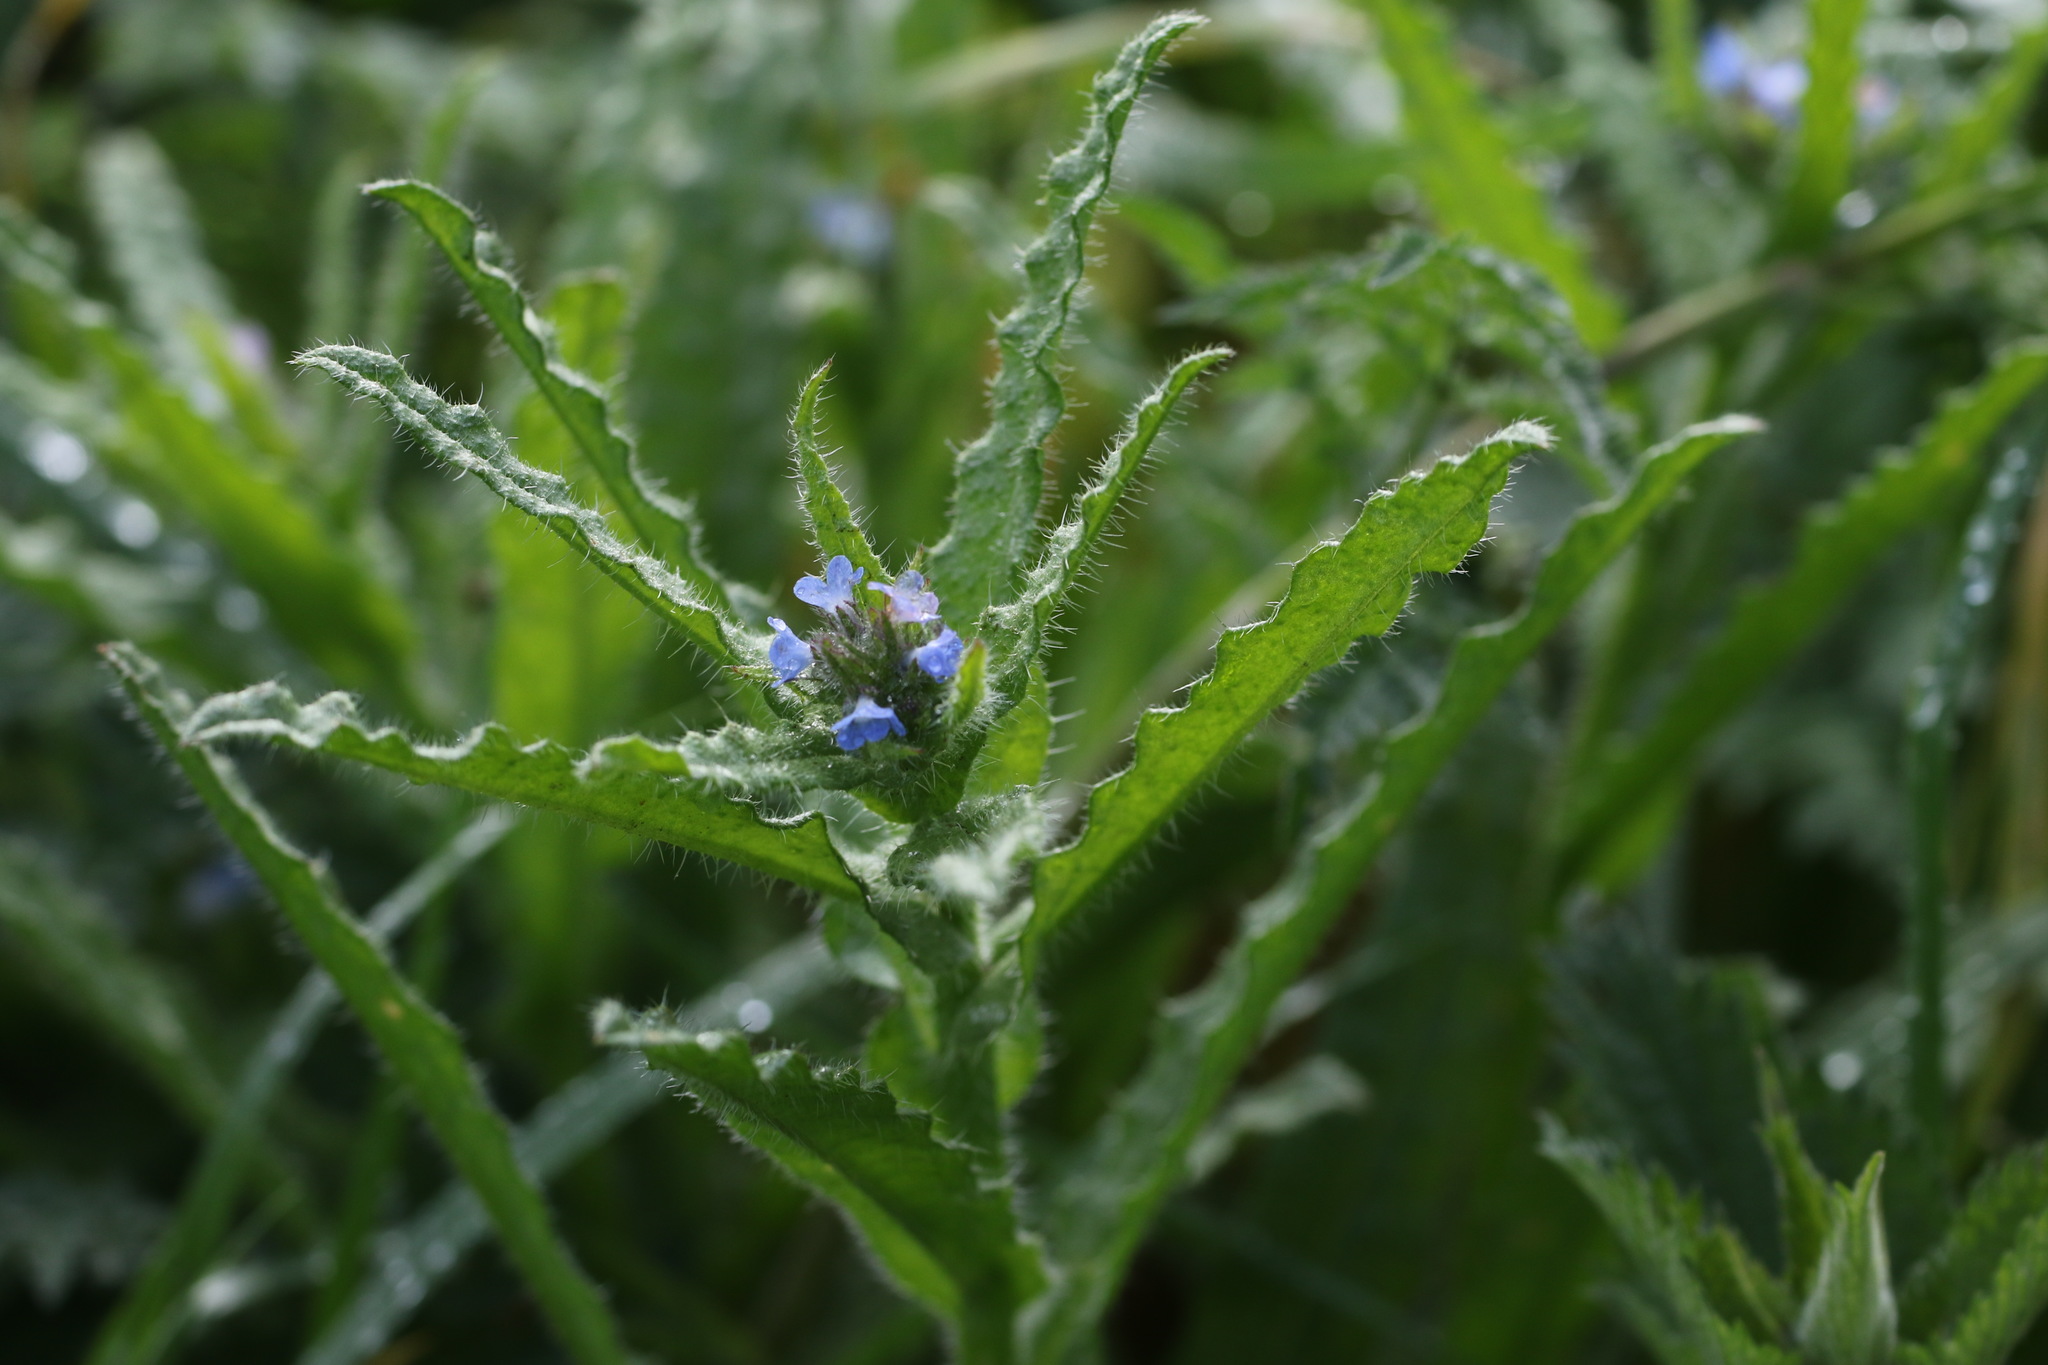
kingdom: Plantae
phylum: Tracheophyta
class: Magnoliopsida
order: Boraginales
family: Boraginaceae
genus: Lycopsis
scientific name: Lycopsis arvensis
